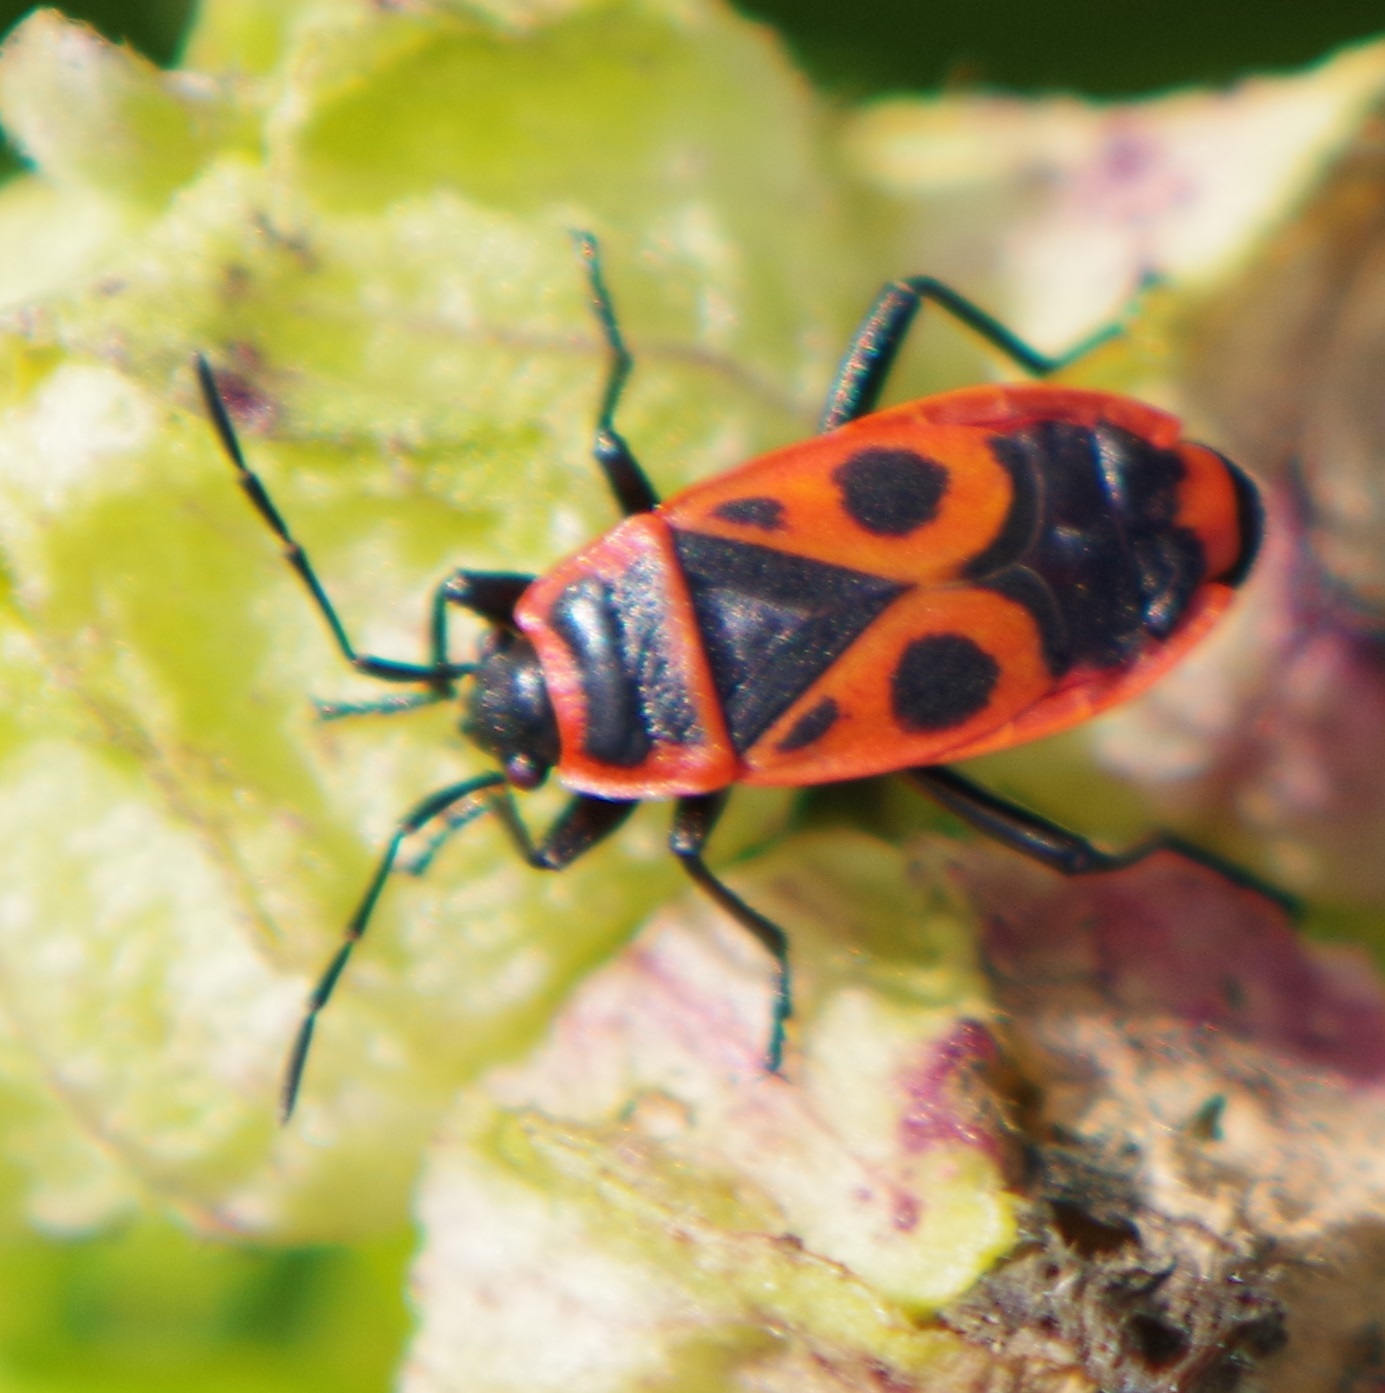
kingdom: Animalia
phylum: Arthropoda
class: Insecta
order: Hemiptera
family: Pyrrhocoridae
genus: Pyrrhocoris
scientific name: Pyrrhocoris apterus
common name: Firebug
